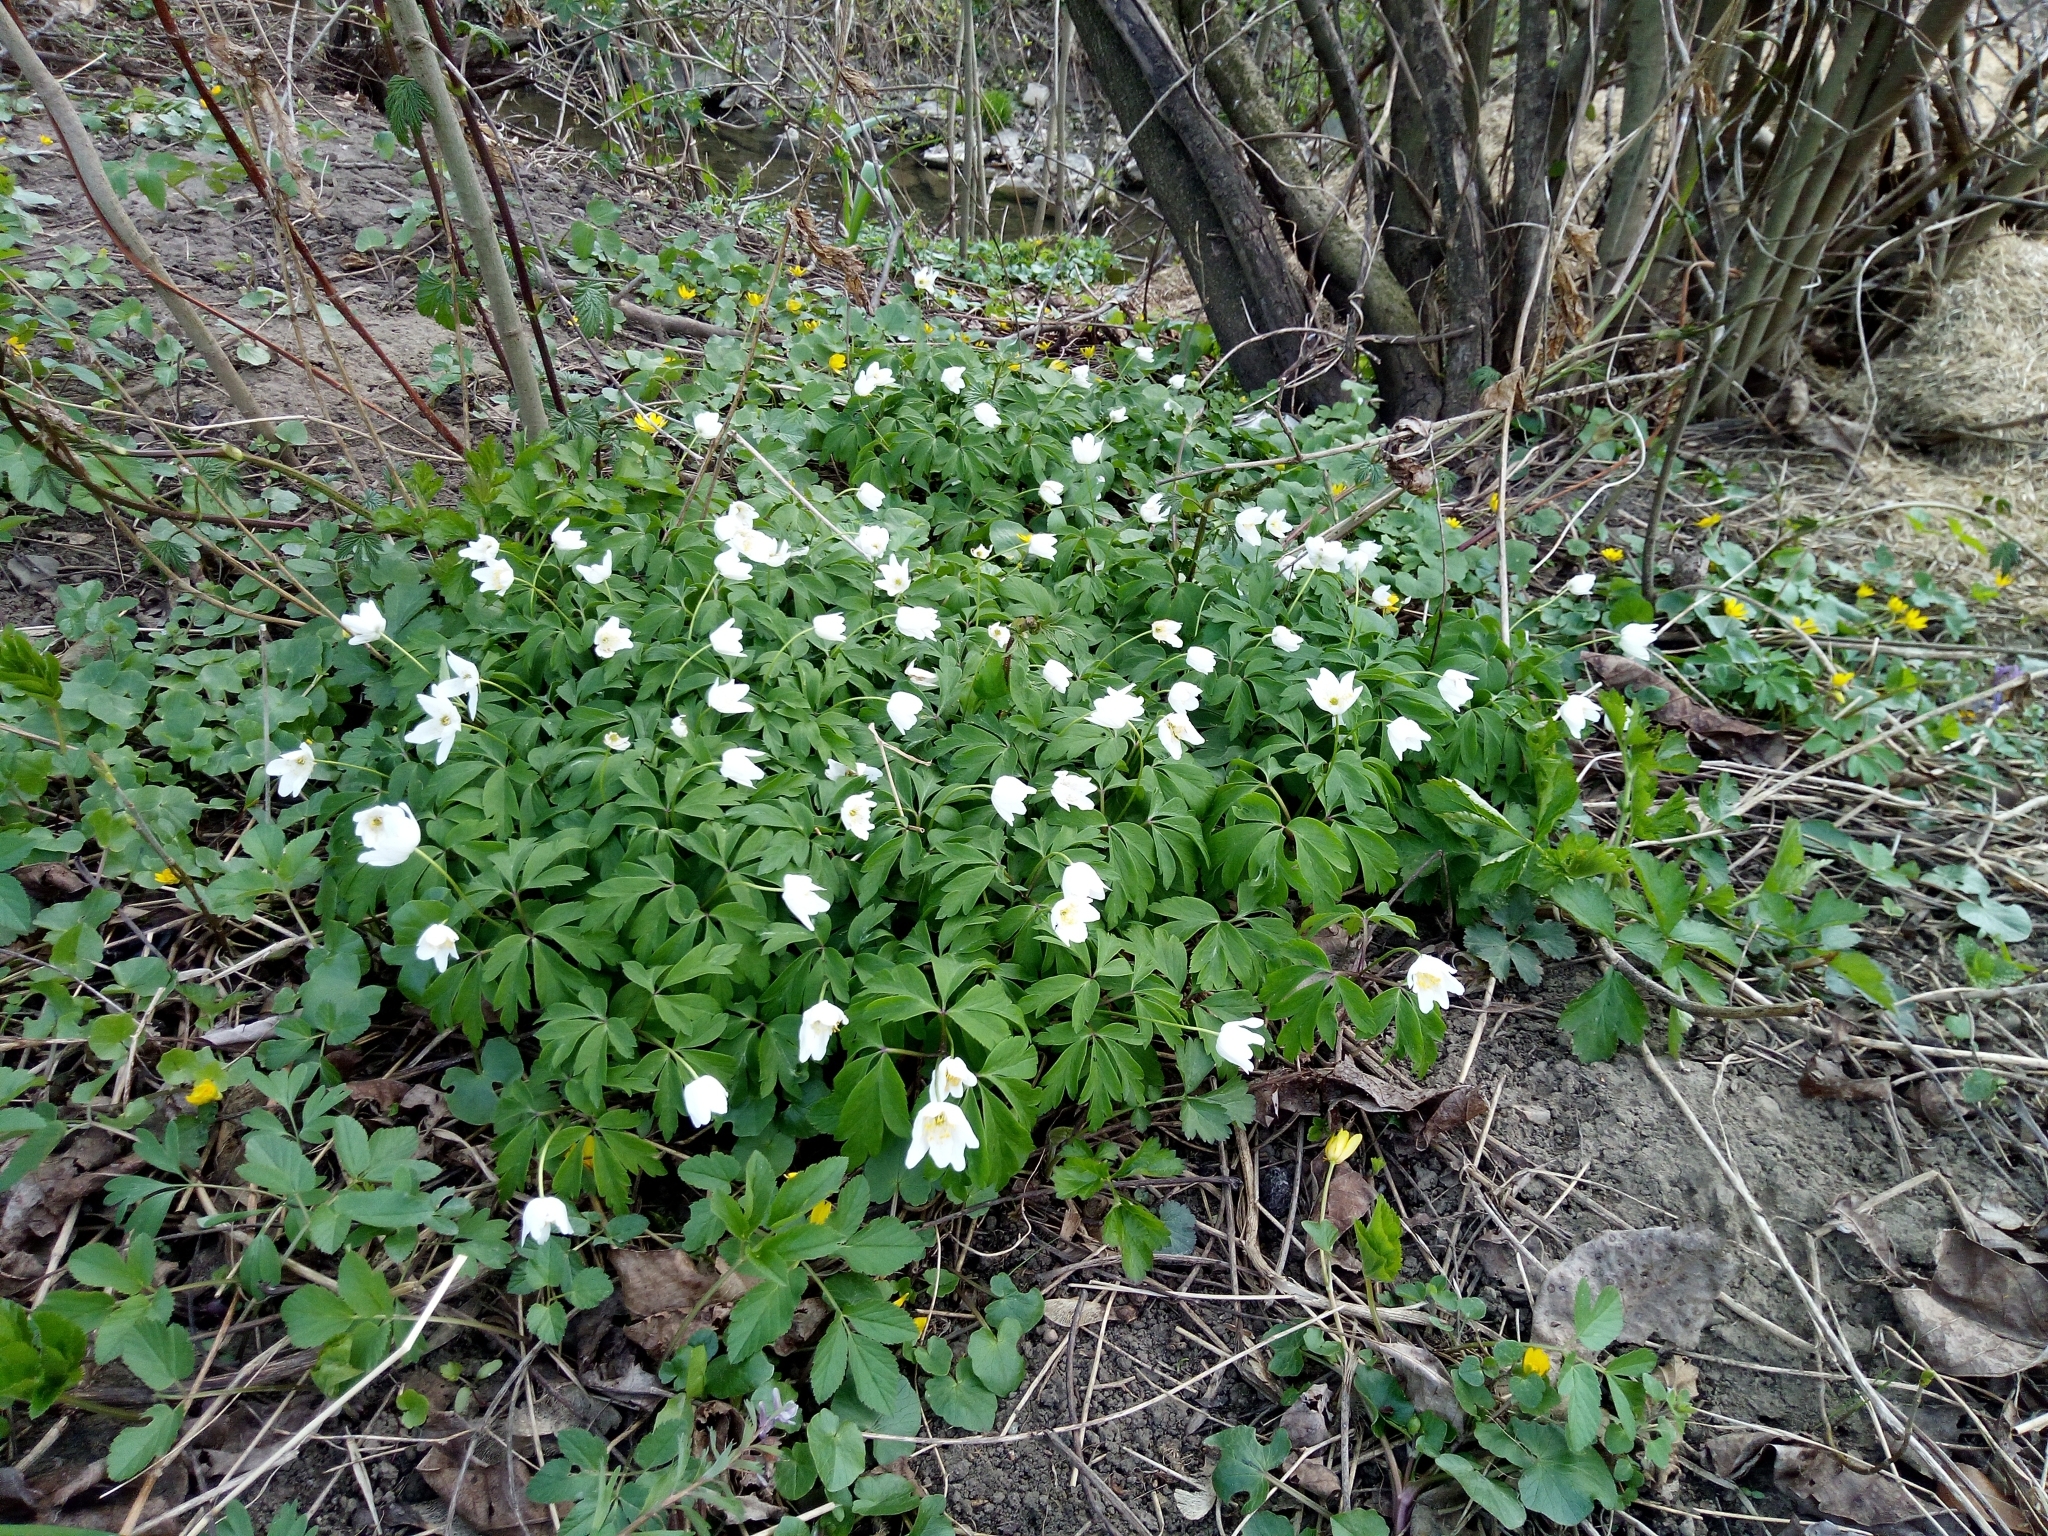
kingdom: Plantae
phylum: Tracheophyta
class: Magnoliopsida
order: Ranunculales
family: Ranunculaceae
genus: Anemone
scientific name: Anemone nemorosa
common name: Wood anemone
